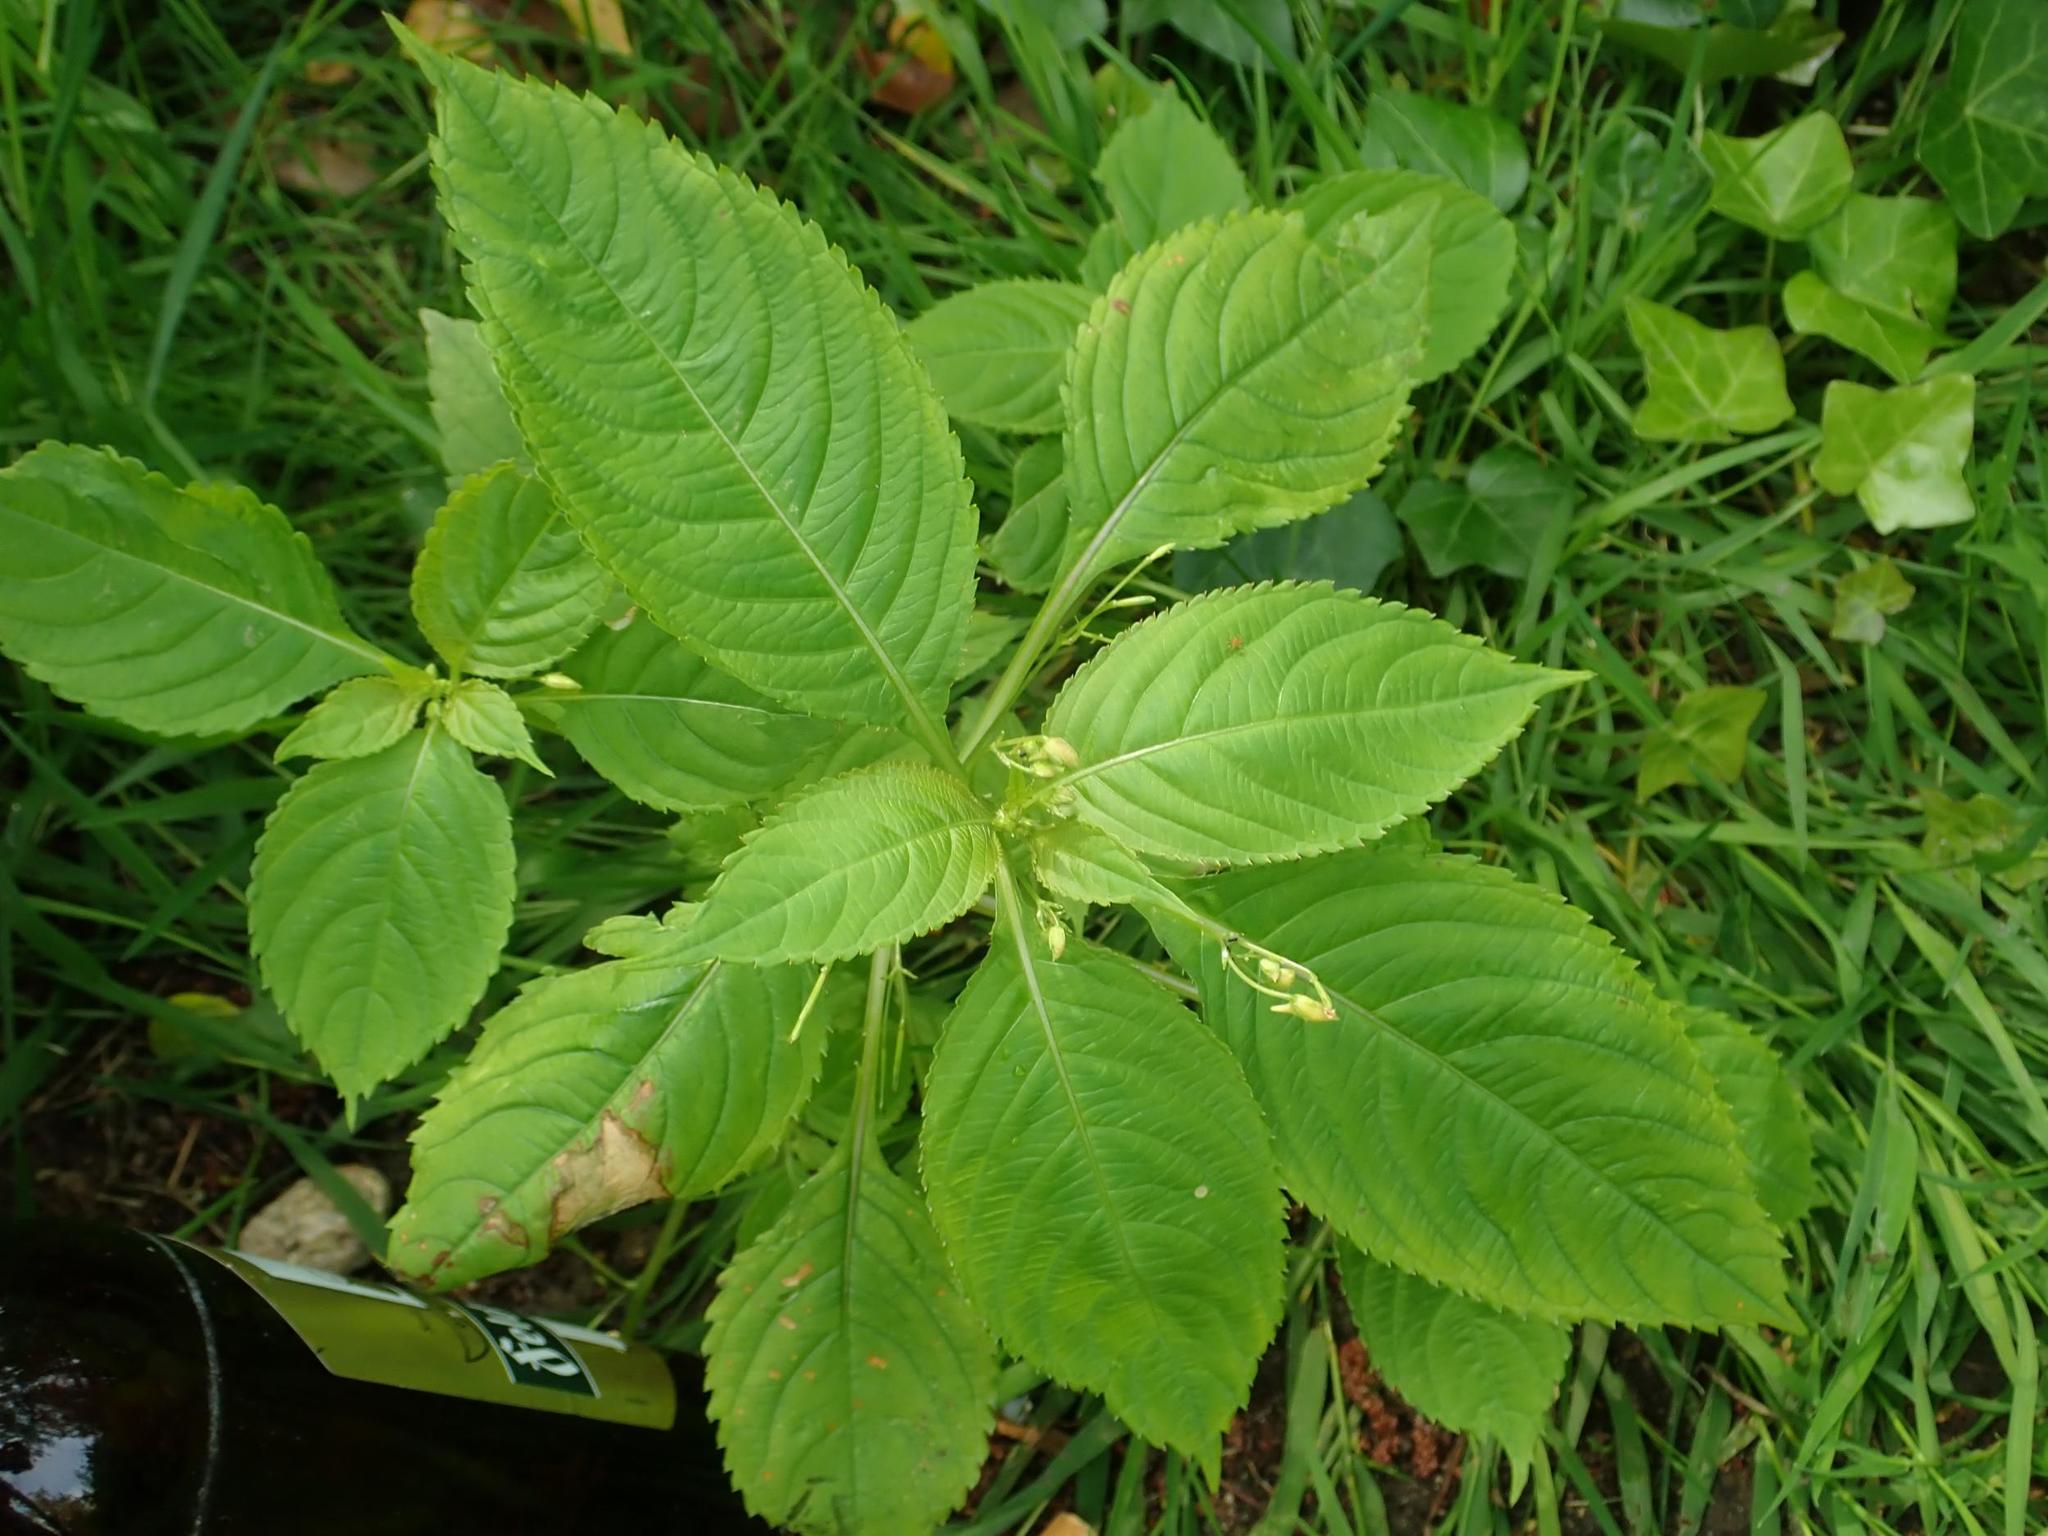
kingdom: Plantae
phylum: Tracheophyta
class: Magnoliopsida
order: Ericales
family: Balsaminaceae
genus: Impatiens
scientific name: Impatiens parviflora
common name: Small balsam
